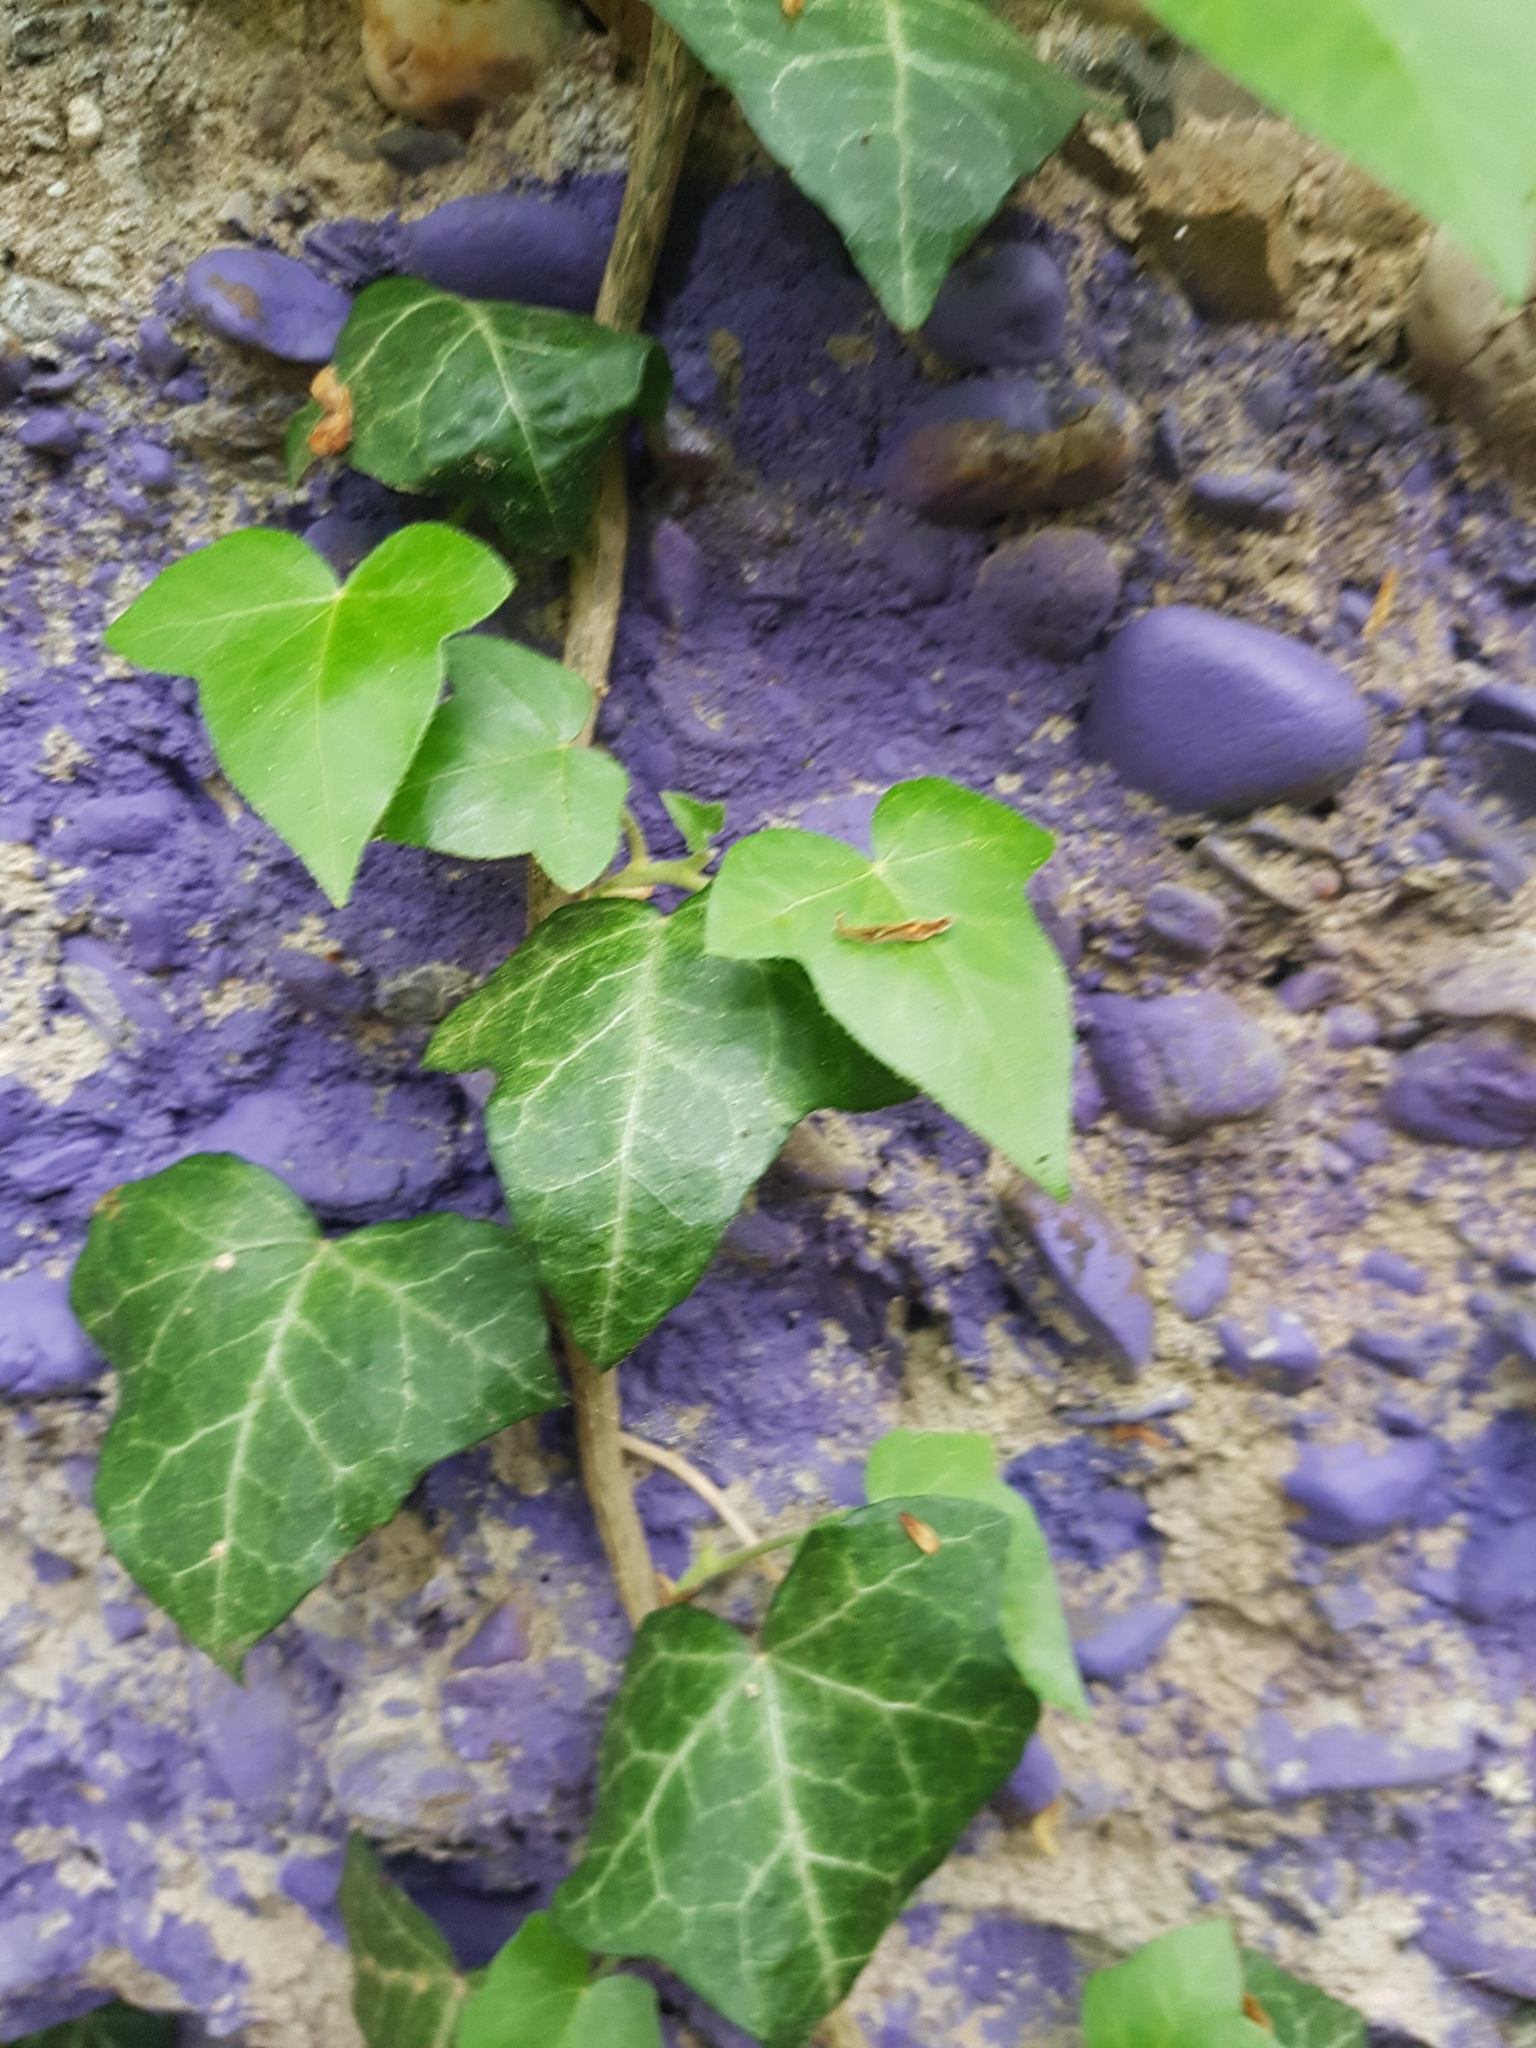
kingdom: Plantae
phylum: Tracheophyta
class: Magnoliopsida
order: Apiales
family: Araliaceae
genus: Hedera
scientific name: Hedera helix
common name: Ivy
